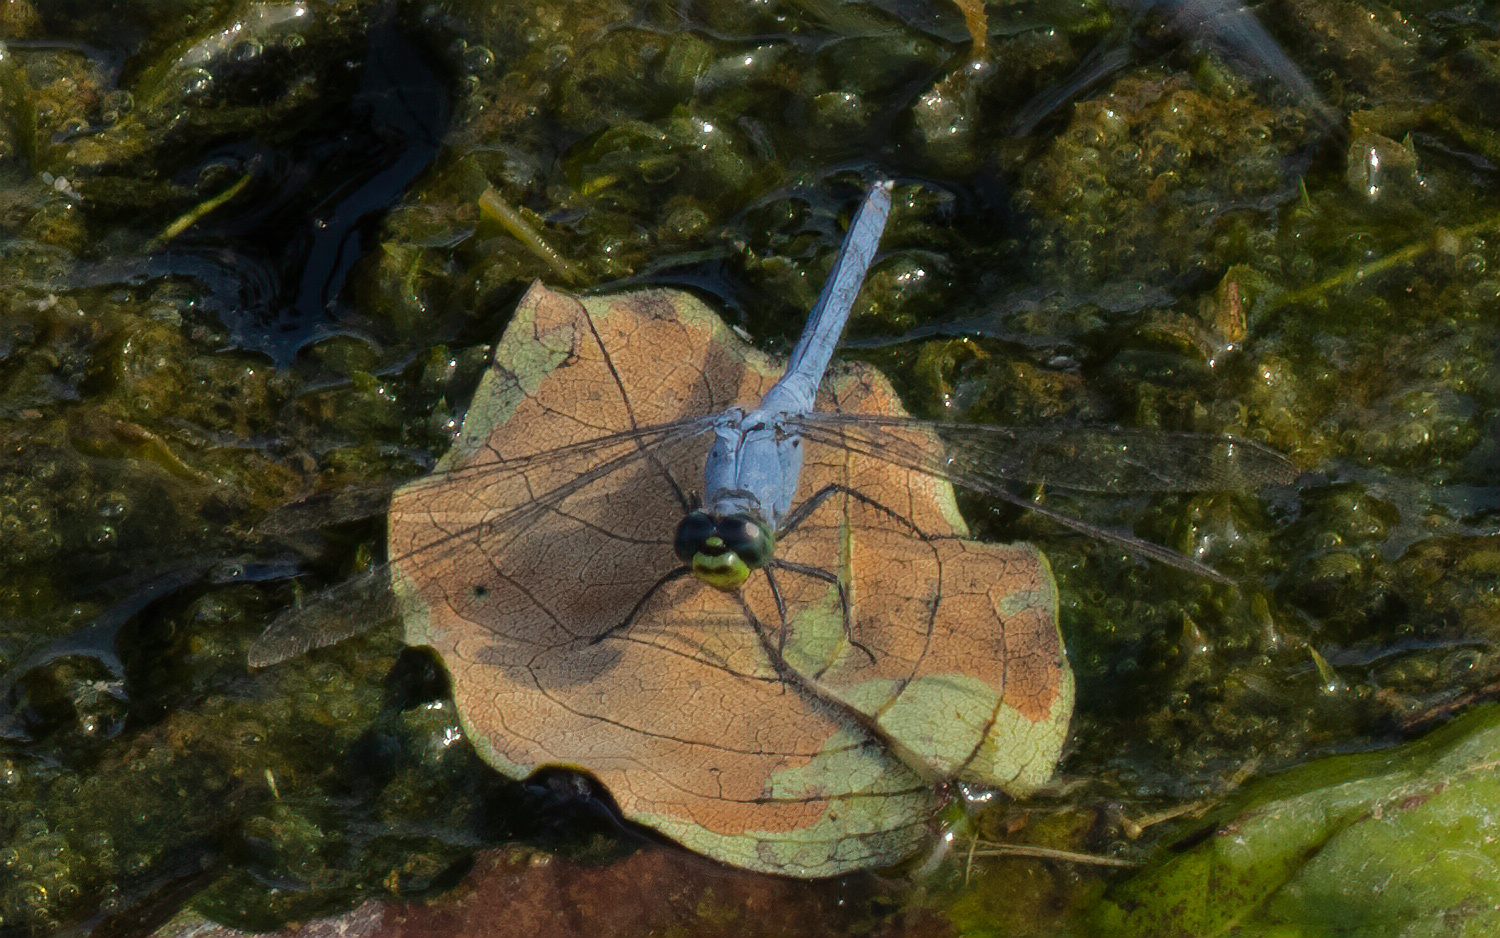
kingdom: Animalia
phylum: Arthropoda
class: Insecta
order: Odonata
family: Libellulidae
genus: Erythemis
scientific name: Erythemis simplicicollis
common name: Eastern pondhawk
